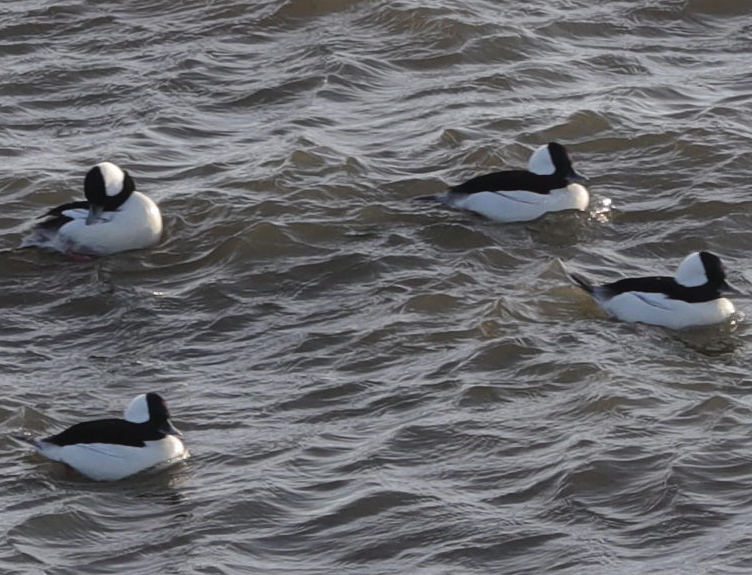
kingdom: Animalia
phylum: Chordata
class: Aves
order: Anseriformes
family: Anatidae
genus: Bucephala
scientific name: Bucephala albeola
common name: Bufflehead
